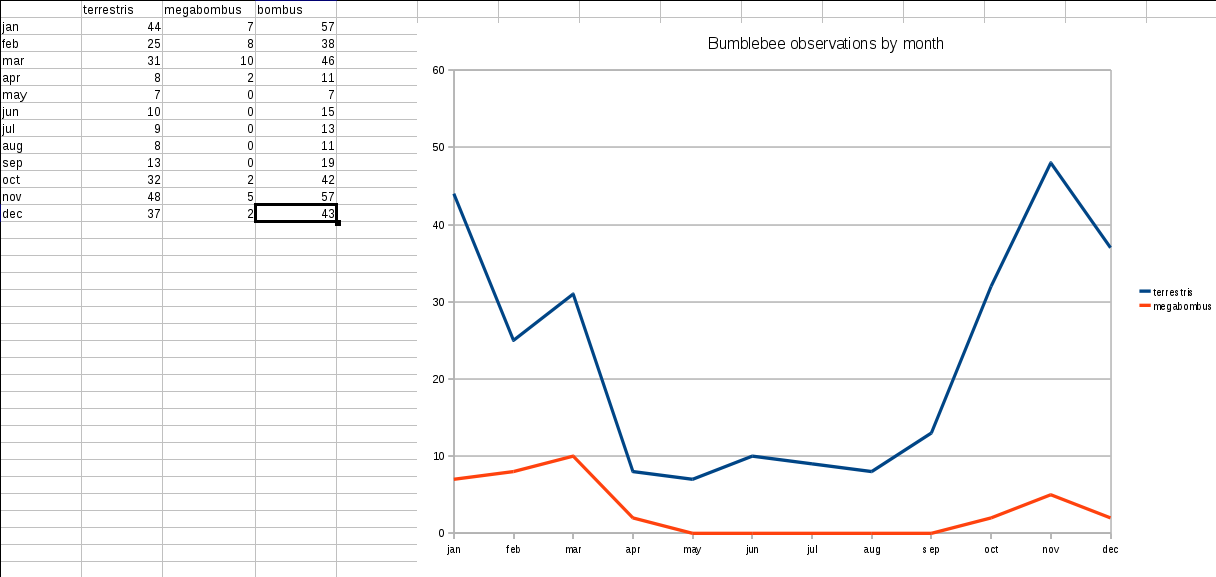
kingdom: Animalia
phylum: Arthropoda
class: Insecta
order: Hymenoptera
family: Apidae
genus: Bombus
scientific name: Bombus terrestris
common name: Buff-tailed bumblebee
